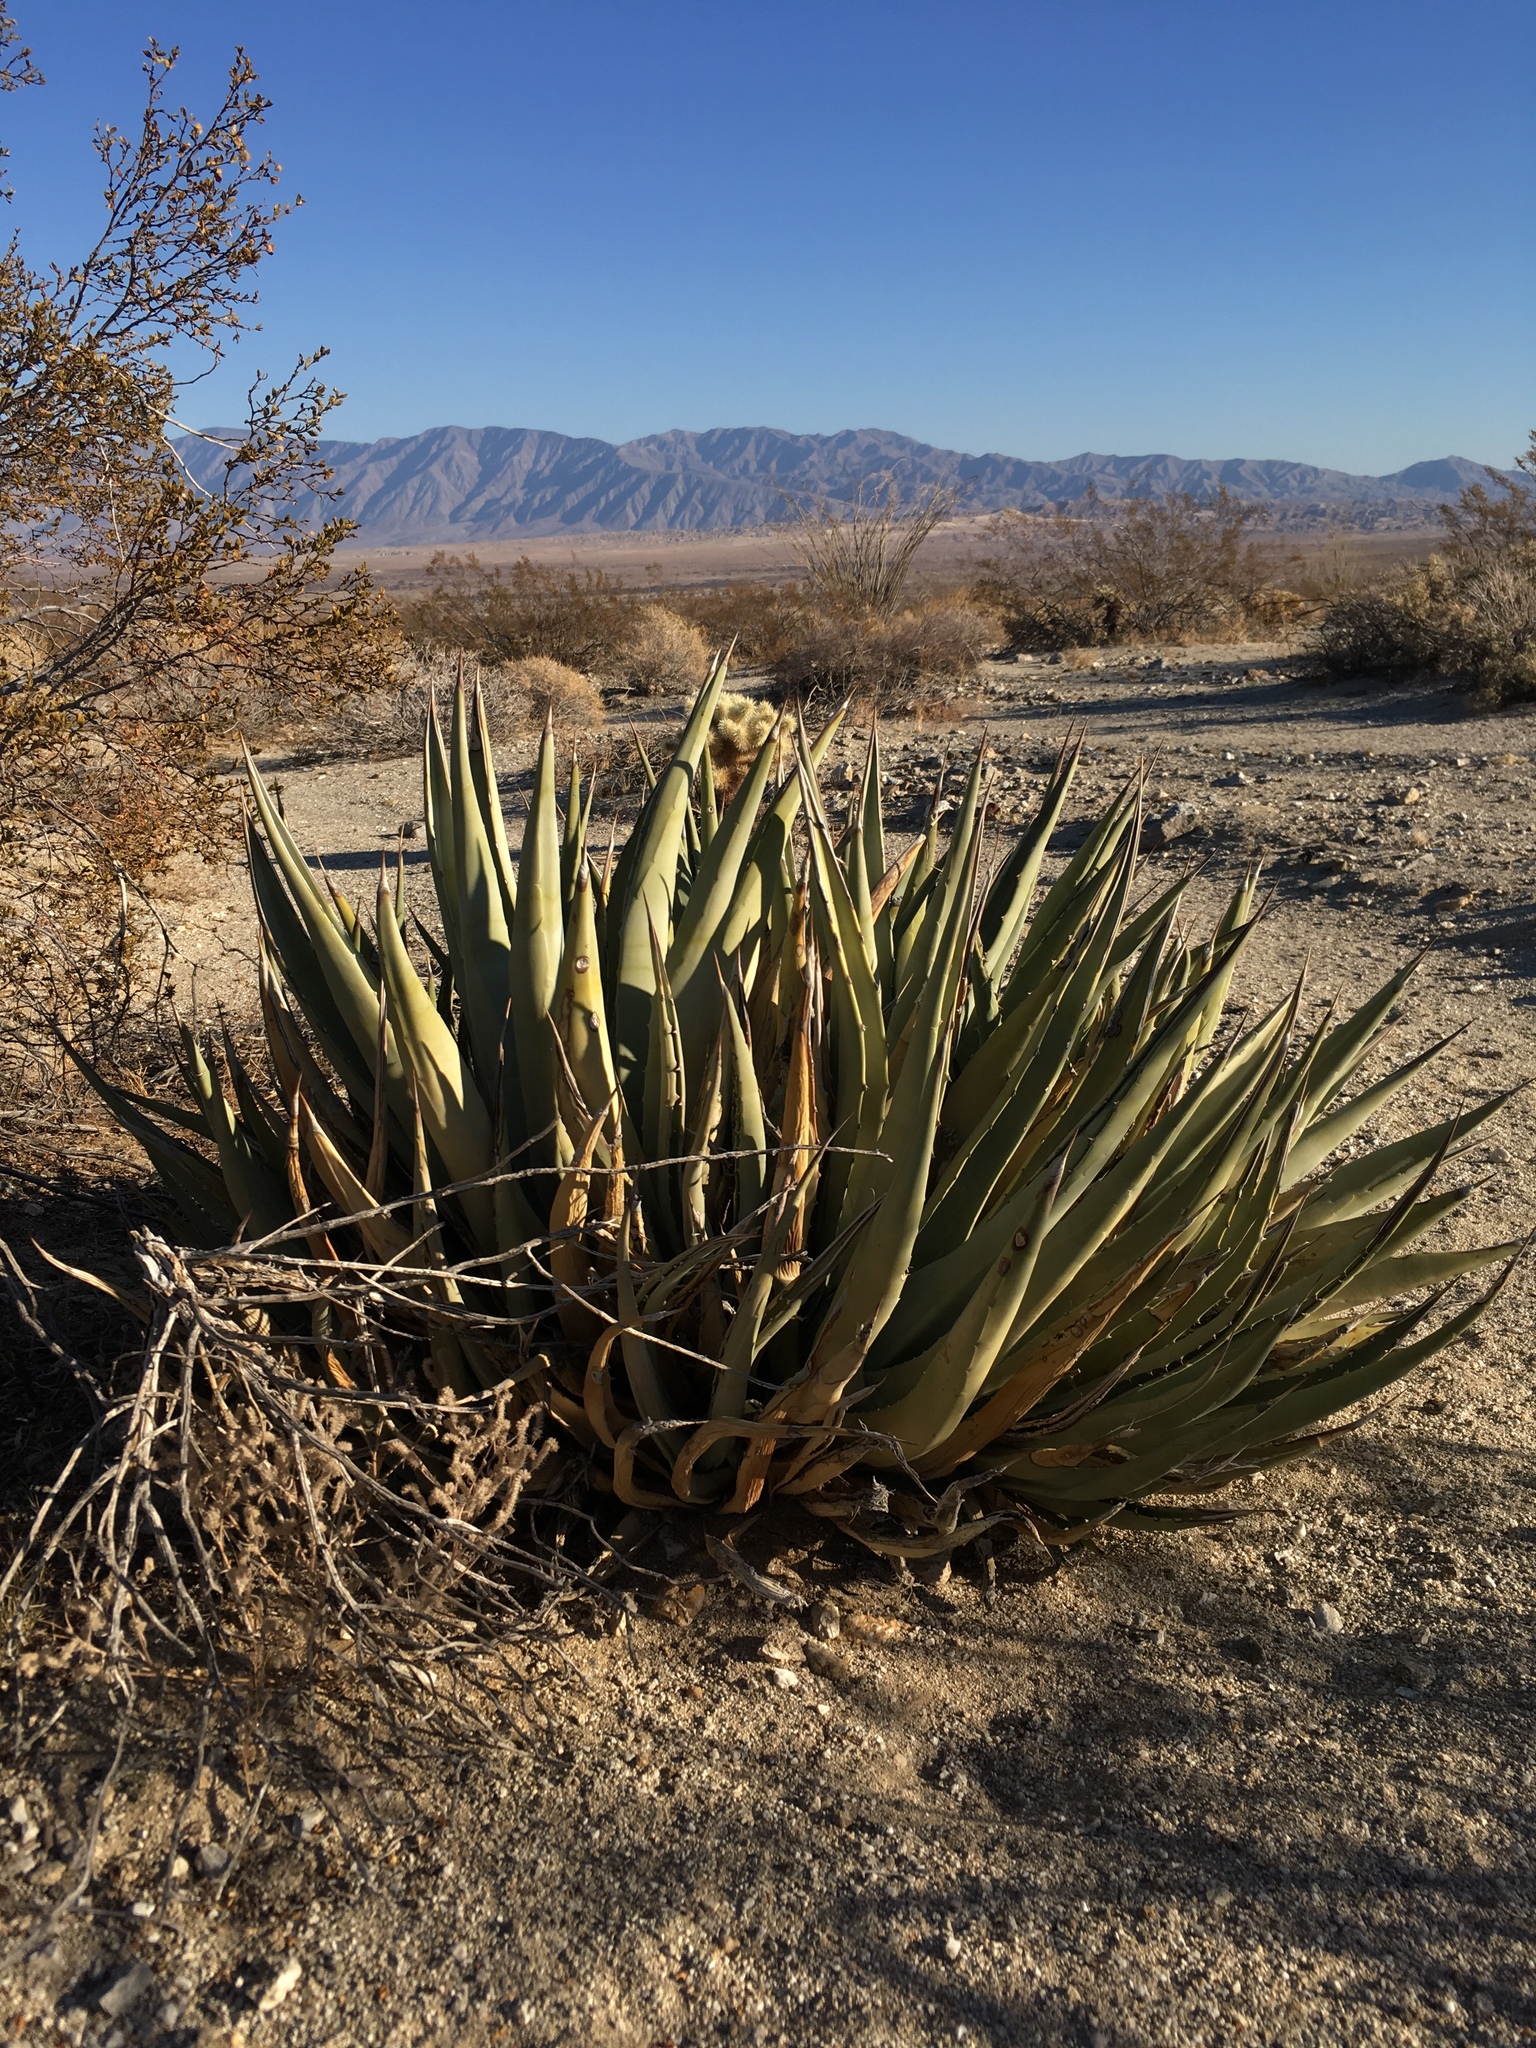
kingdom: Plantae
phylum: Tracheophyta
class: Liliopsida
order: Asparagales
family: Asparagaceae
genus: Agave
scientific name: Agave deserti
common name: Desert agave
